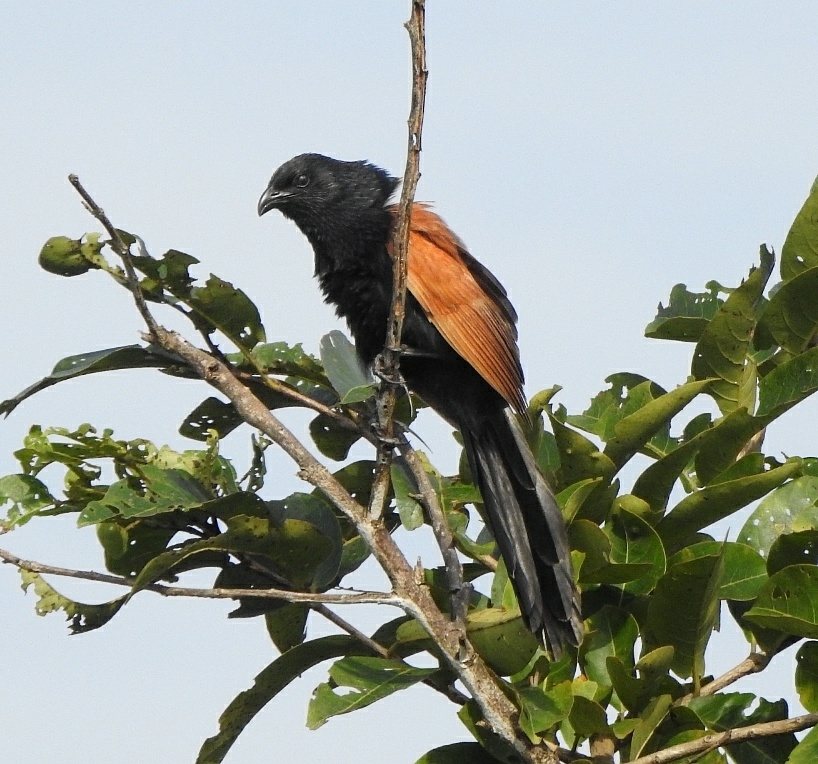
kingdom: Animalia
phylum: Chordata
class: Aves
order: Cuculiformes
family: Cuculidae
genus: Centropus
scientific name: Centropus bengalensis
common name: Lesser coucal
